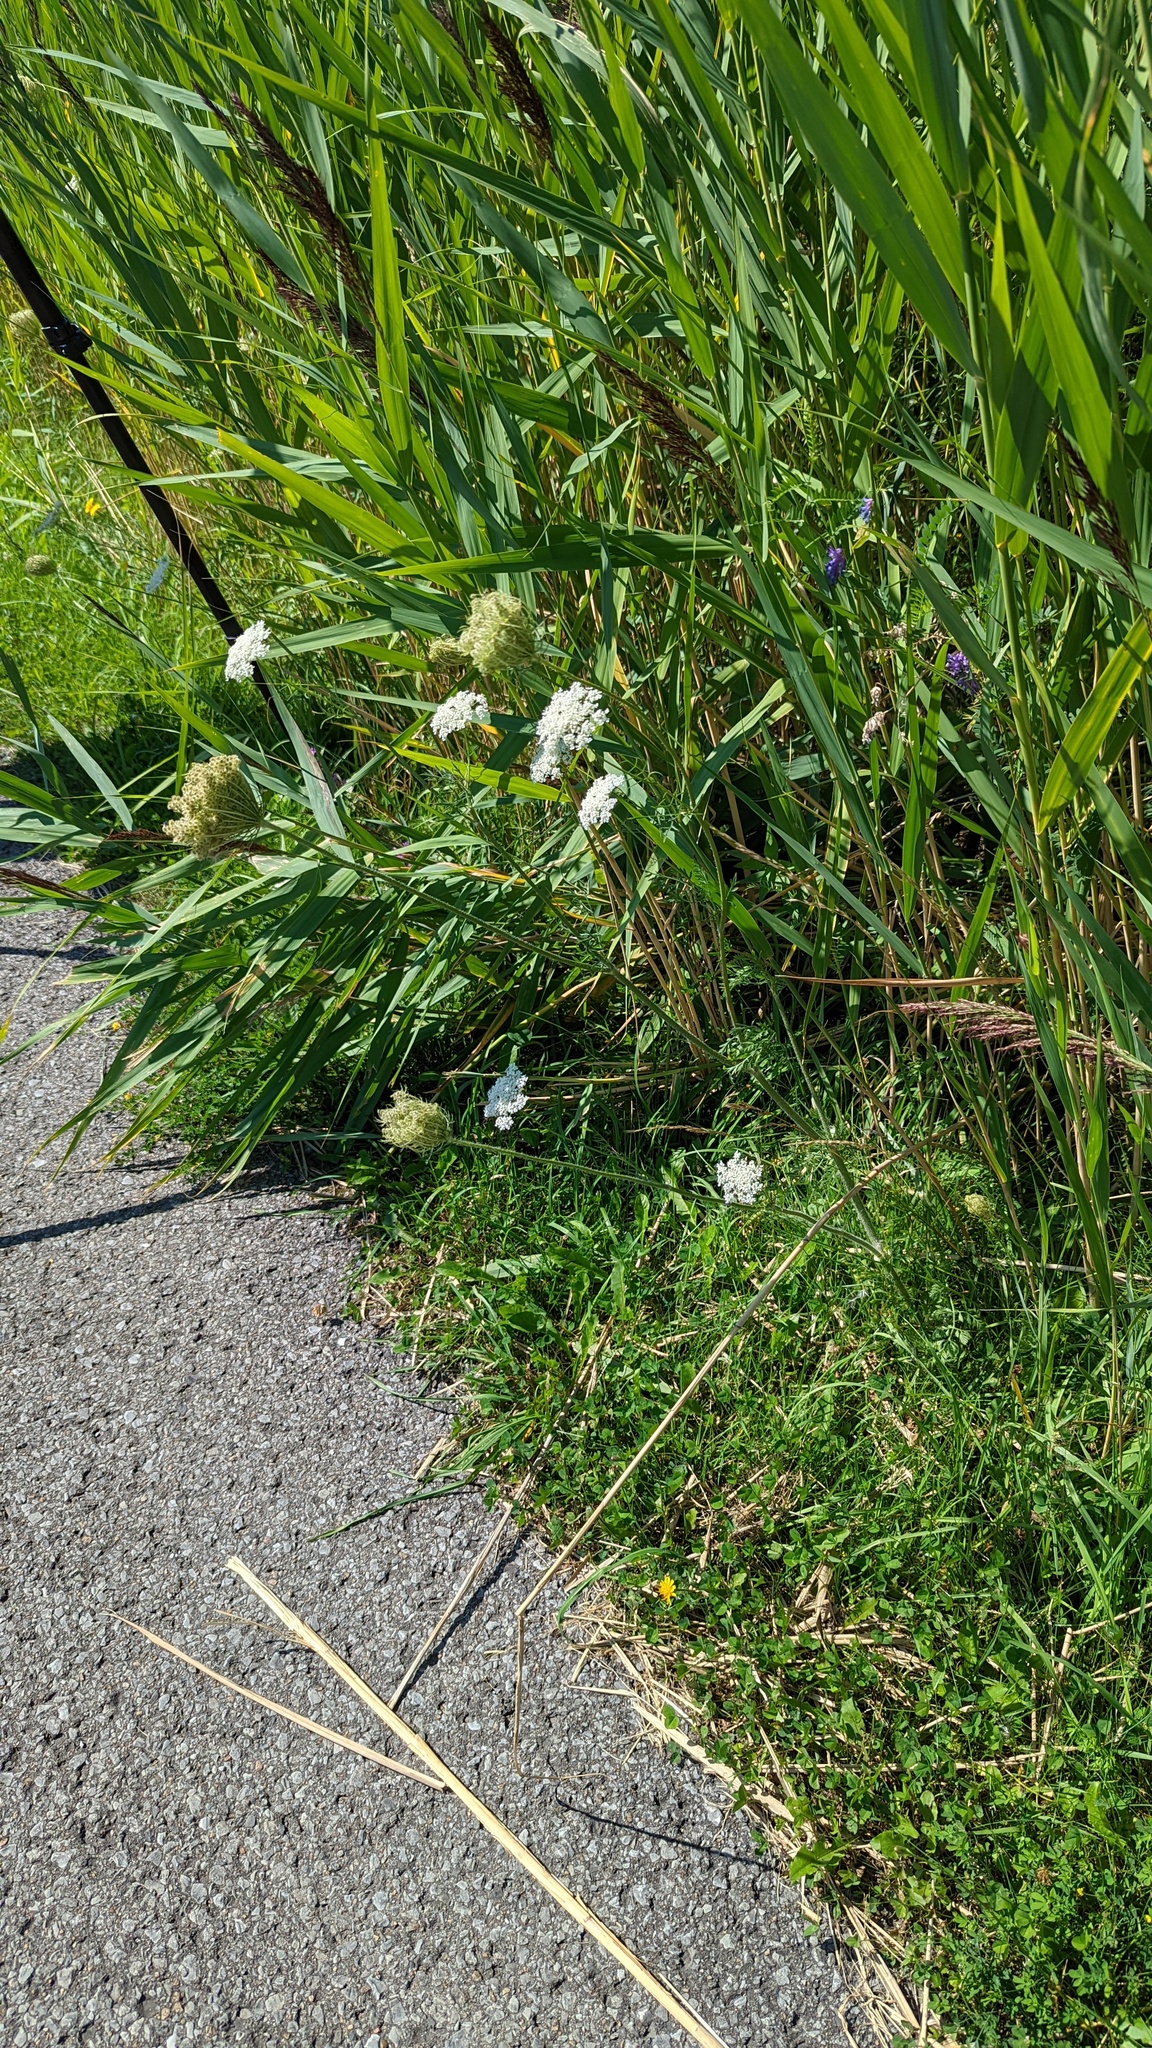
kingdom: Plantae
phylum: Tracheophyta
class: Magnoliopsida
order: Apiales
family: Apiaceae
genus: Daucus
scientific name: Daucus carota
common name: Wild carrot
